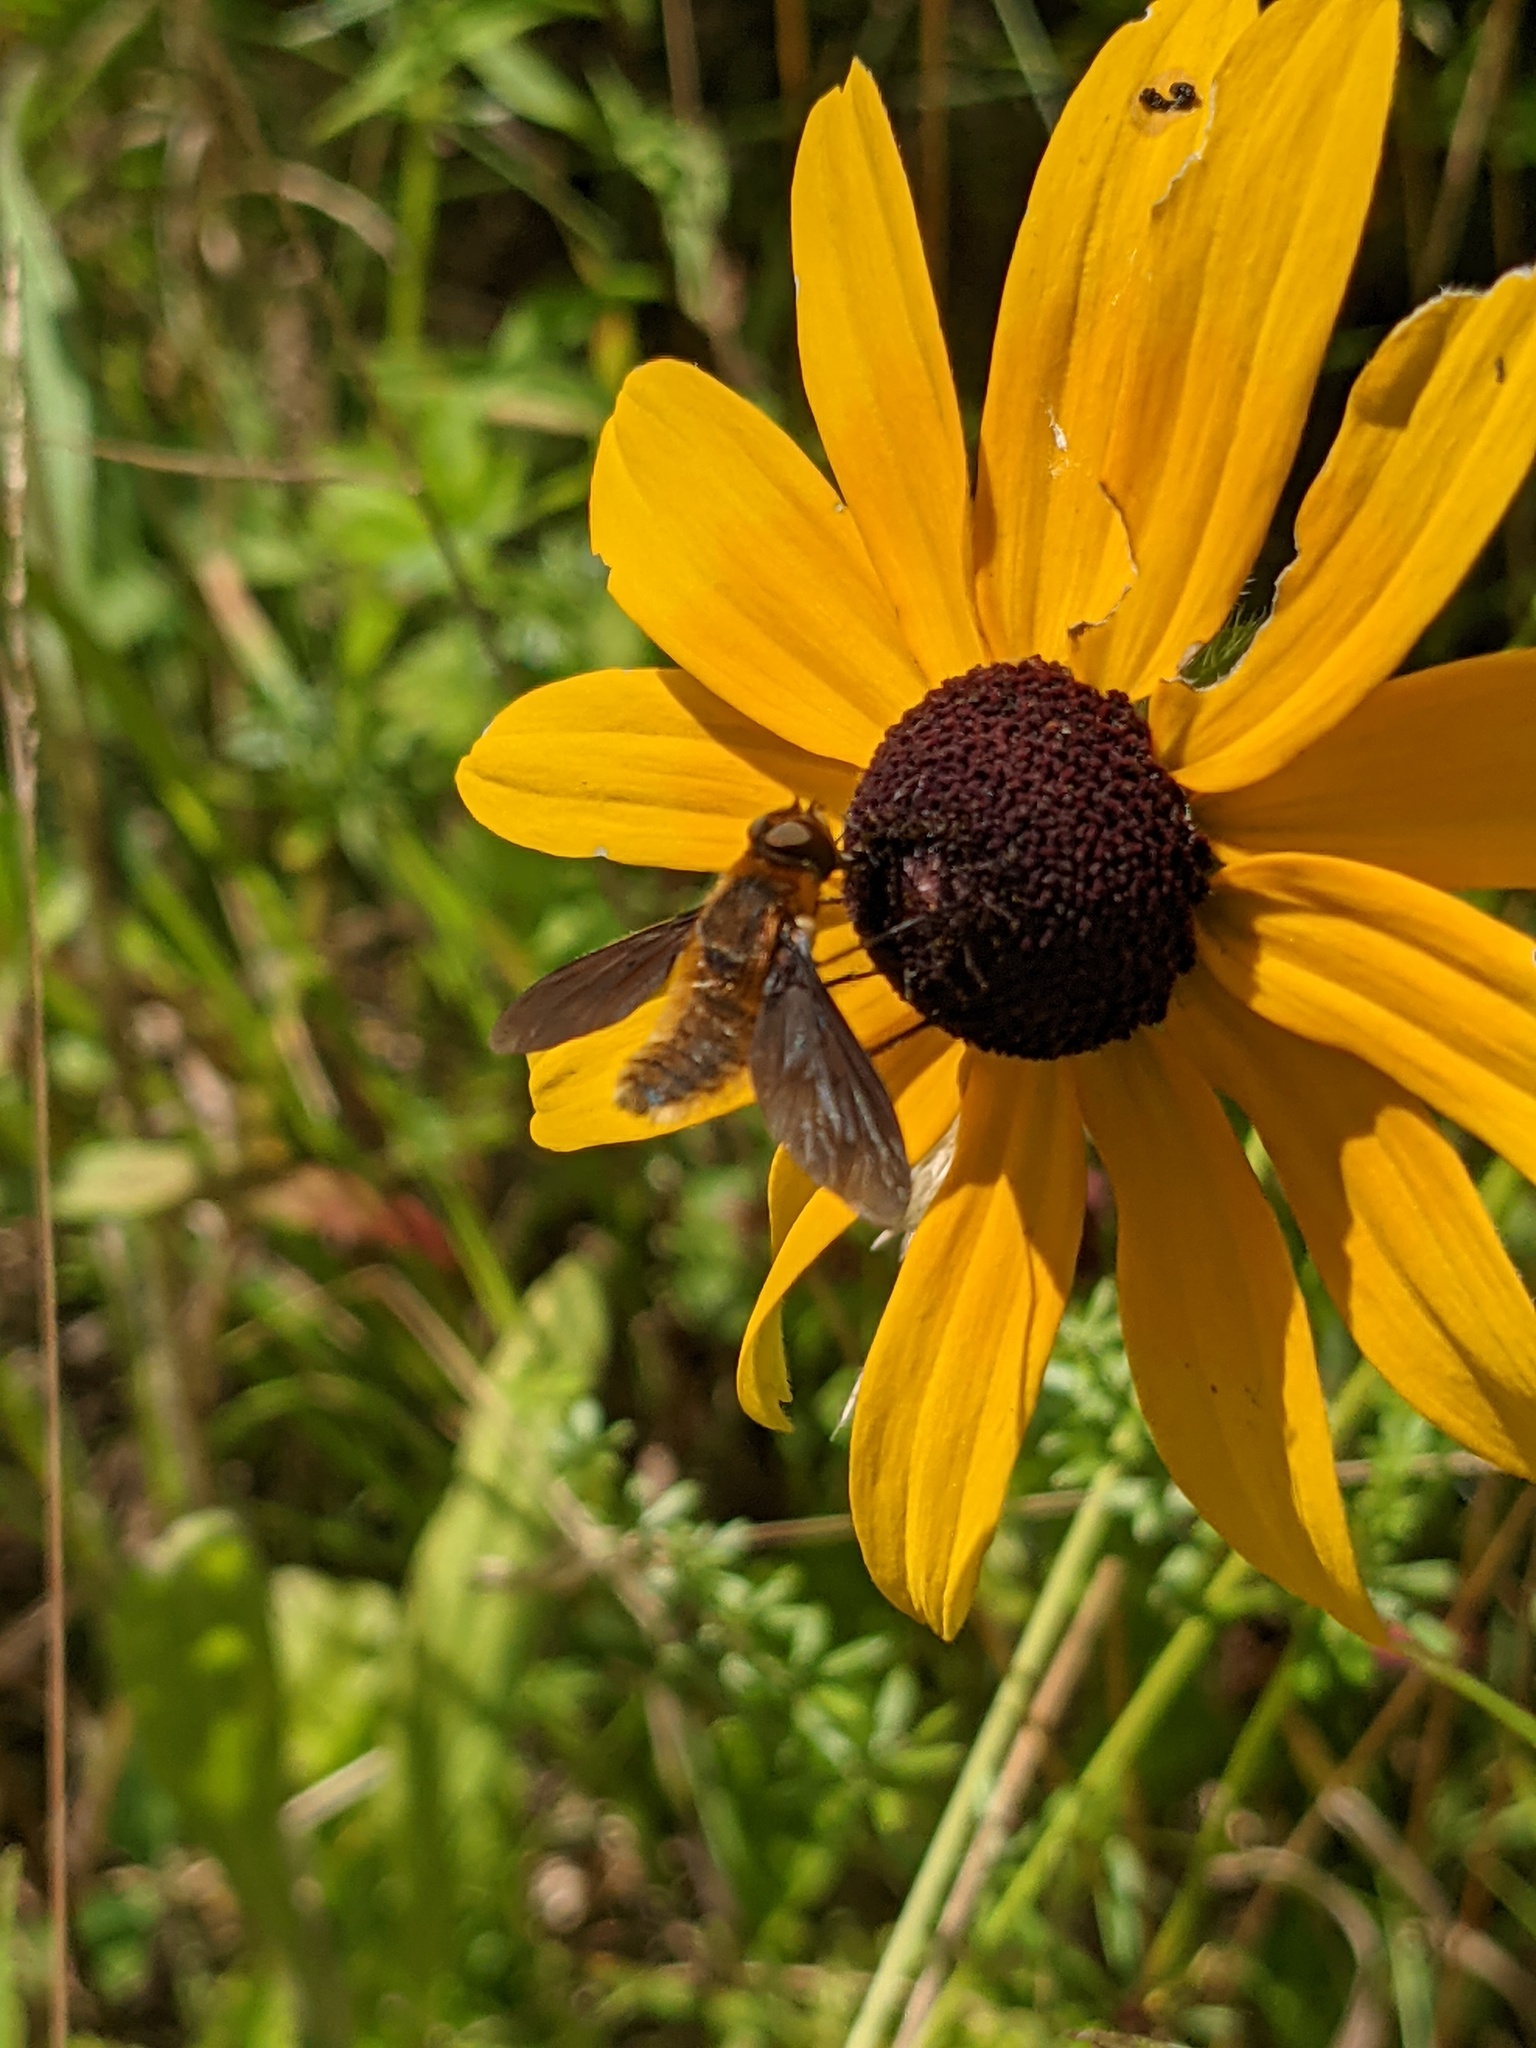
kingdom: Animalia
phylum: Arthropoda
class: Insecta
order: Diptera
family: Bombyliidae
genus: Poecilanthrax
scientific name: Poecilanthrax tegminipennis
